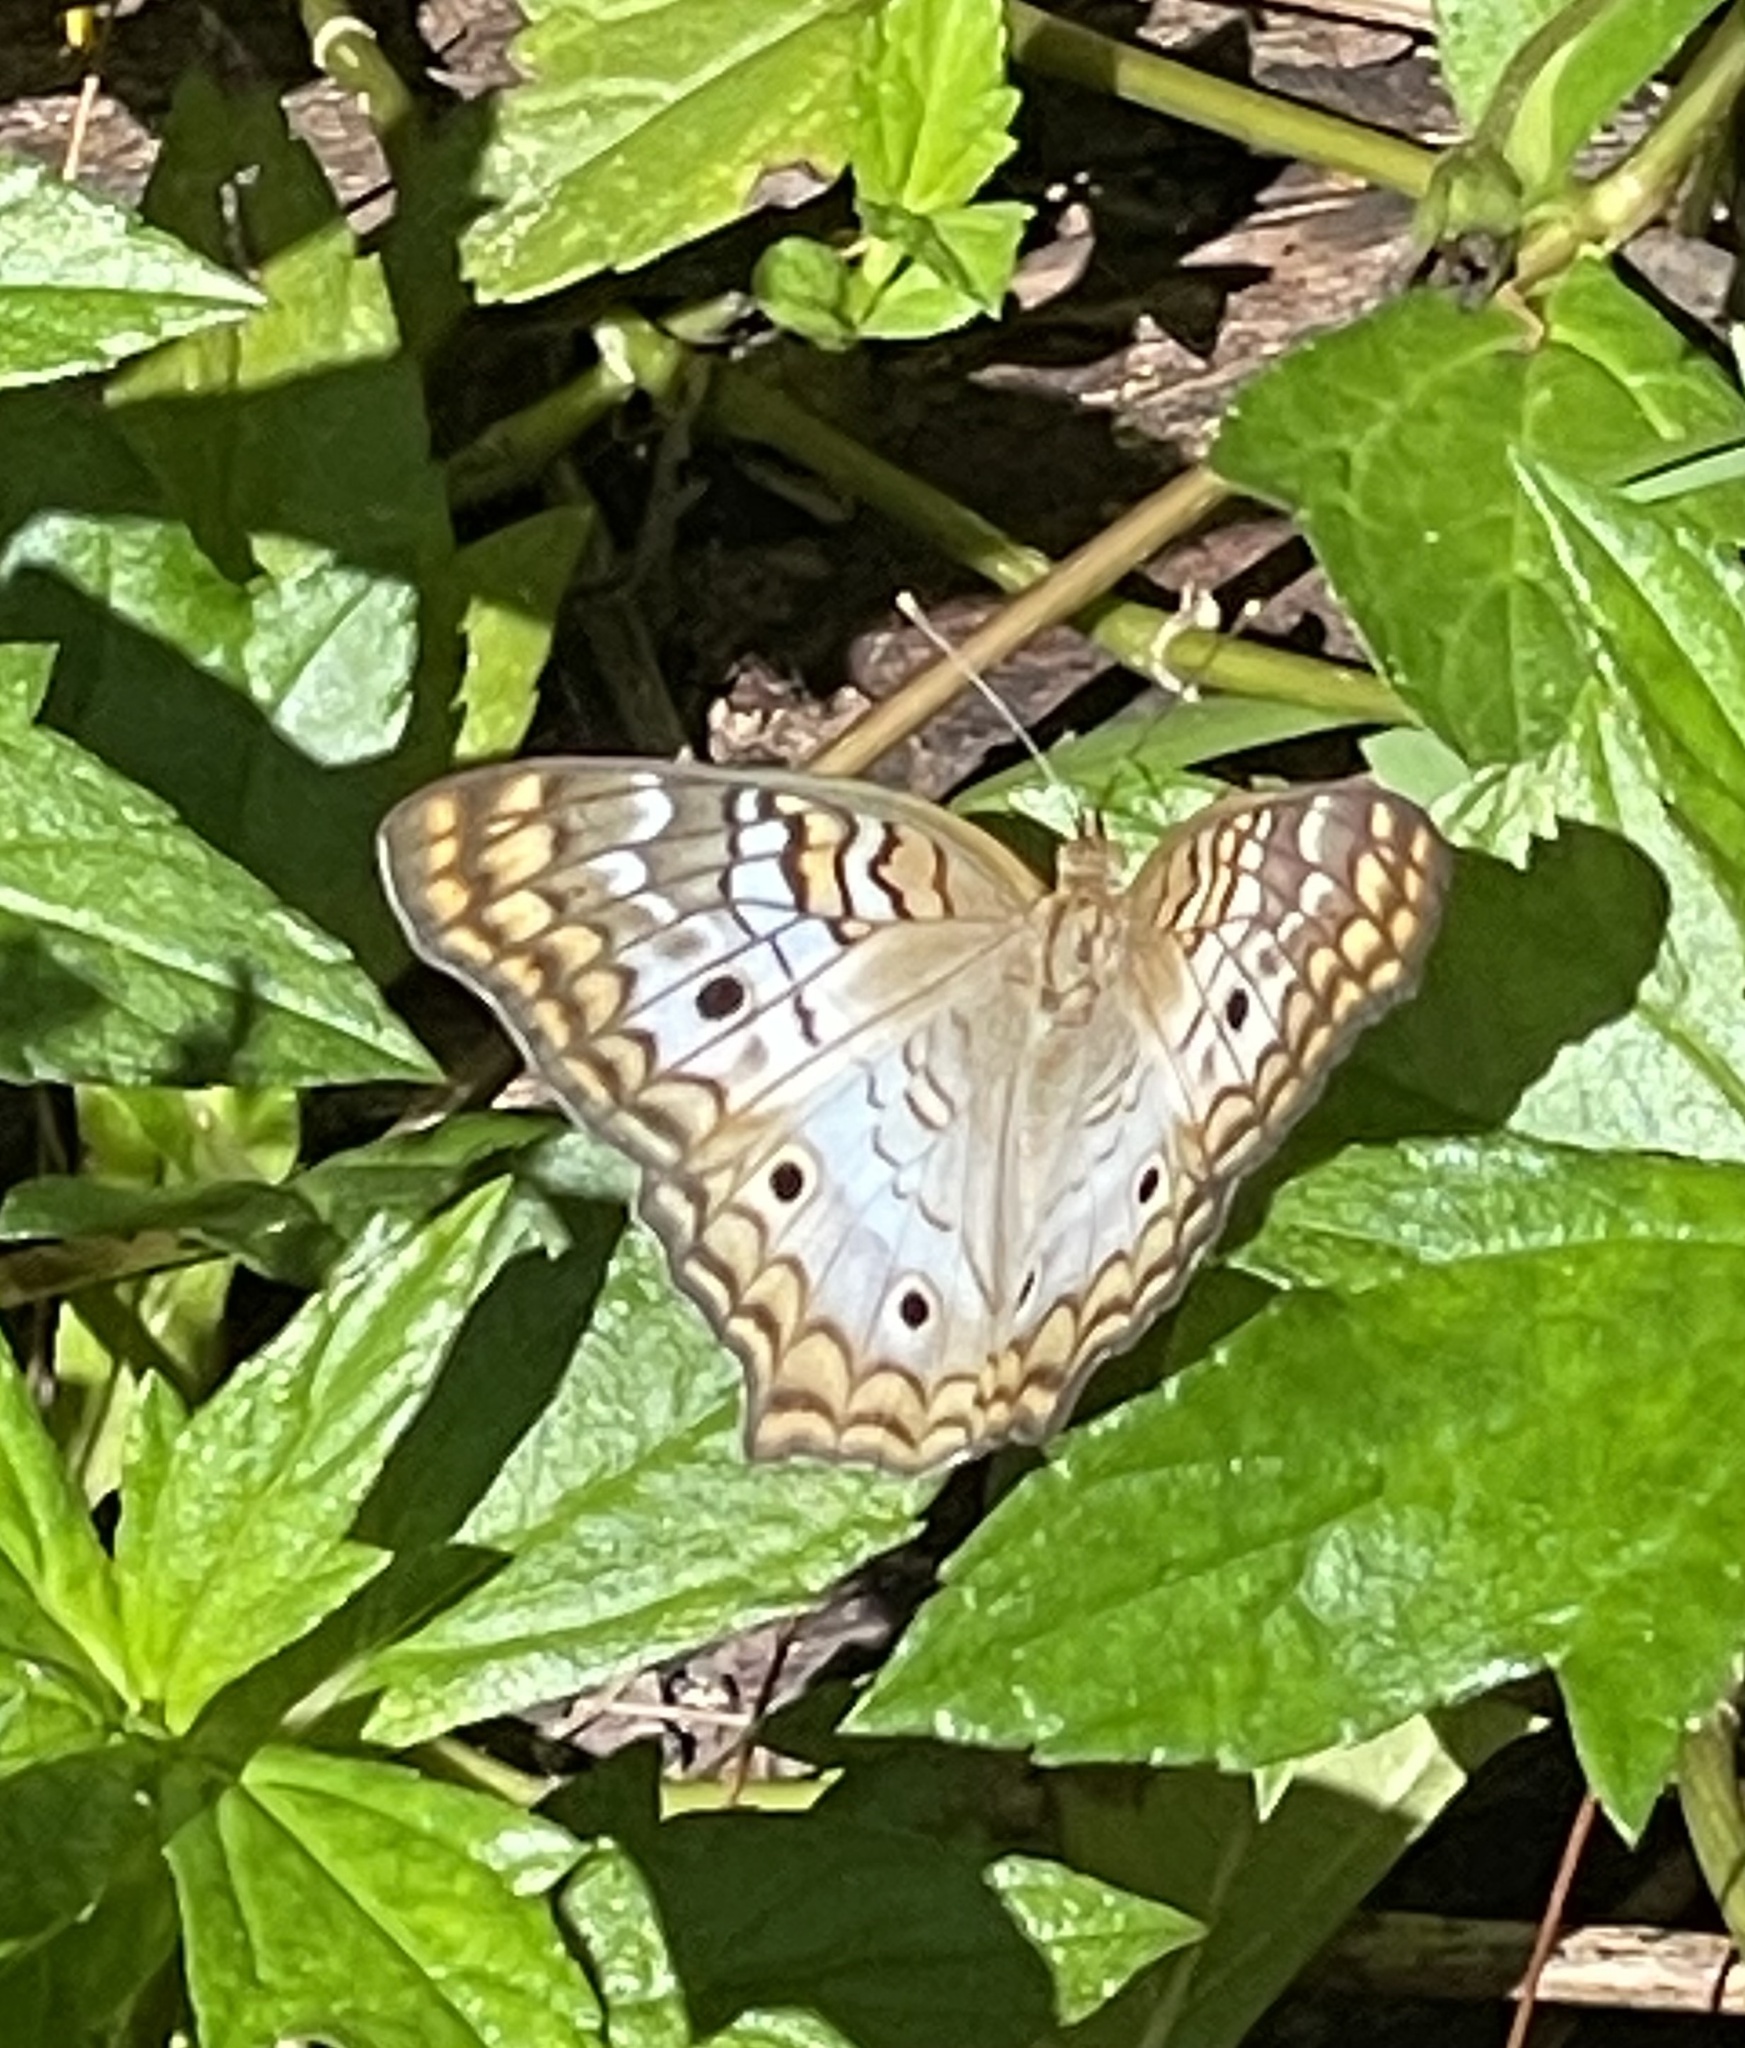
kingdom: Animalia
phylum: Arthropoda
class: Insecta
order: Lepidoptera
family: Nymphalidae
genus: Anartia
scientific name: Anartia jatrophae
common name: White peacock
